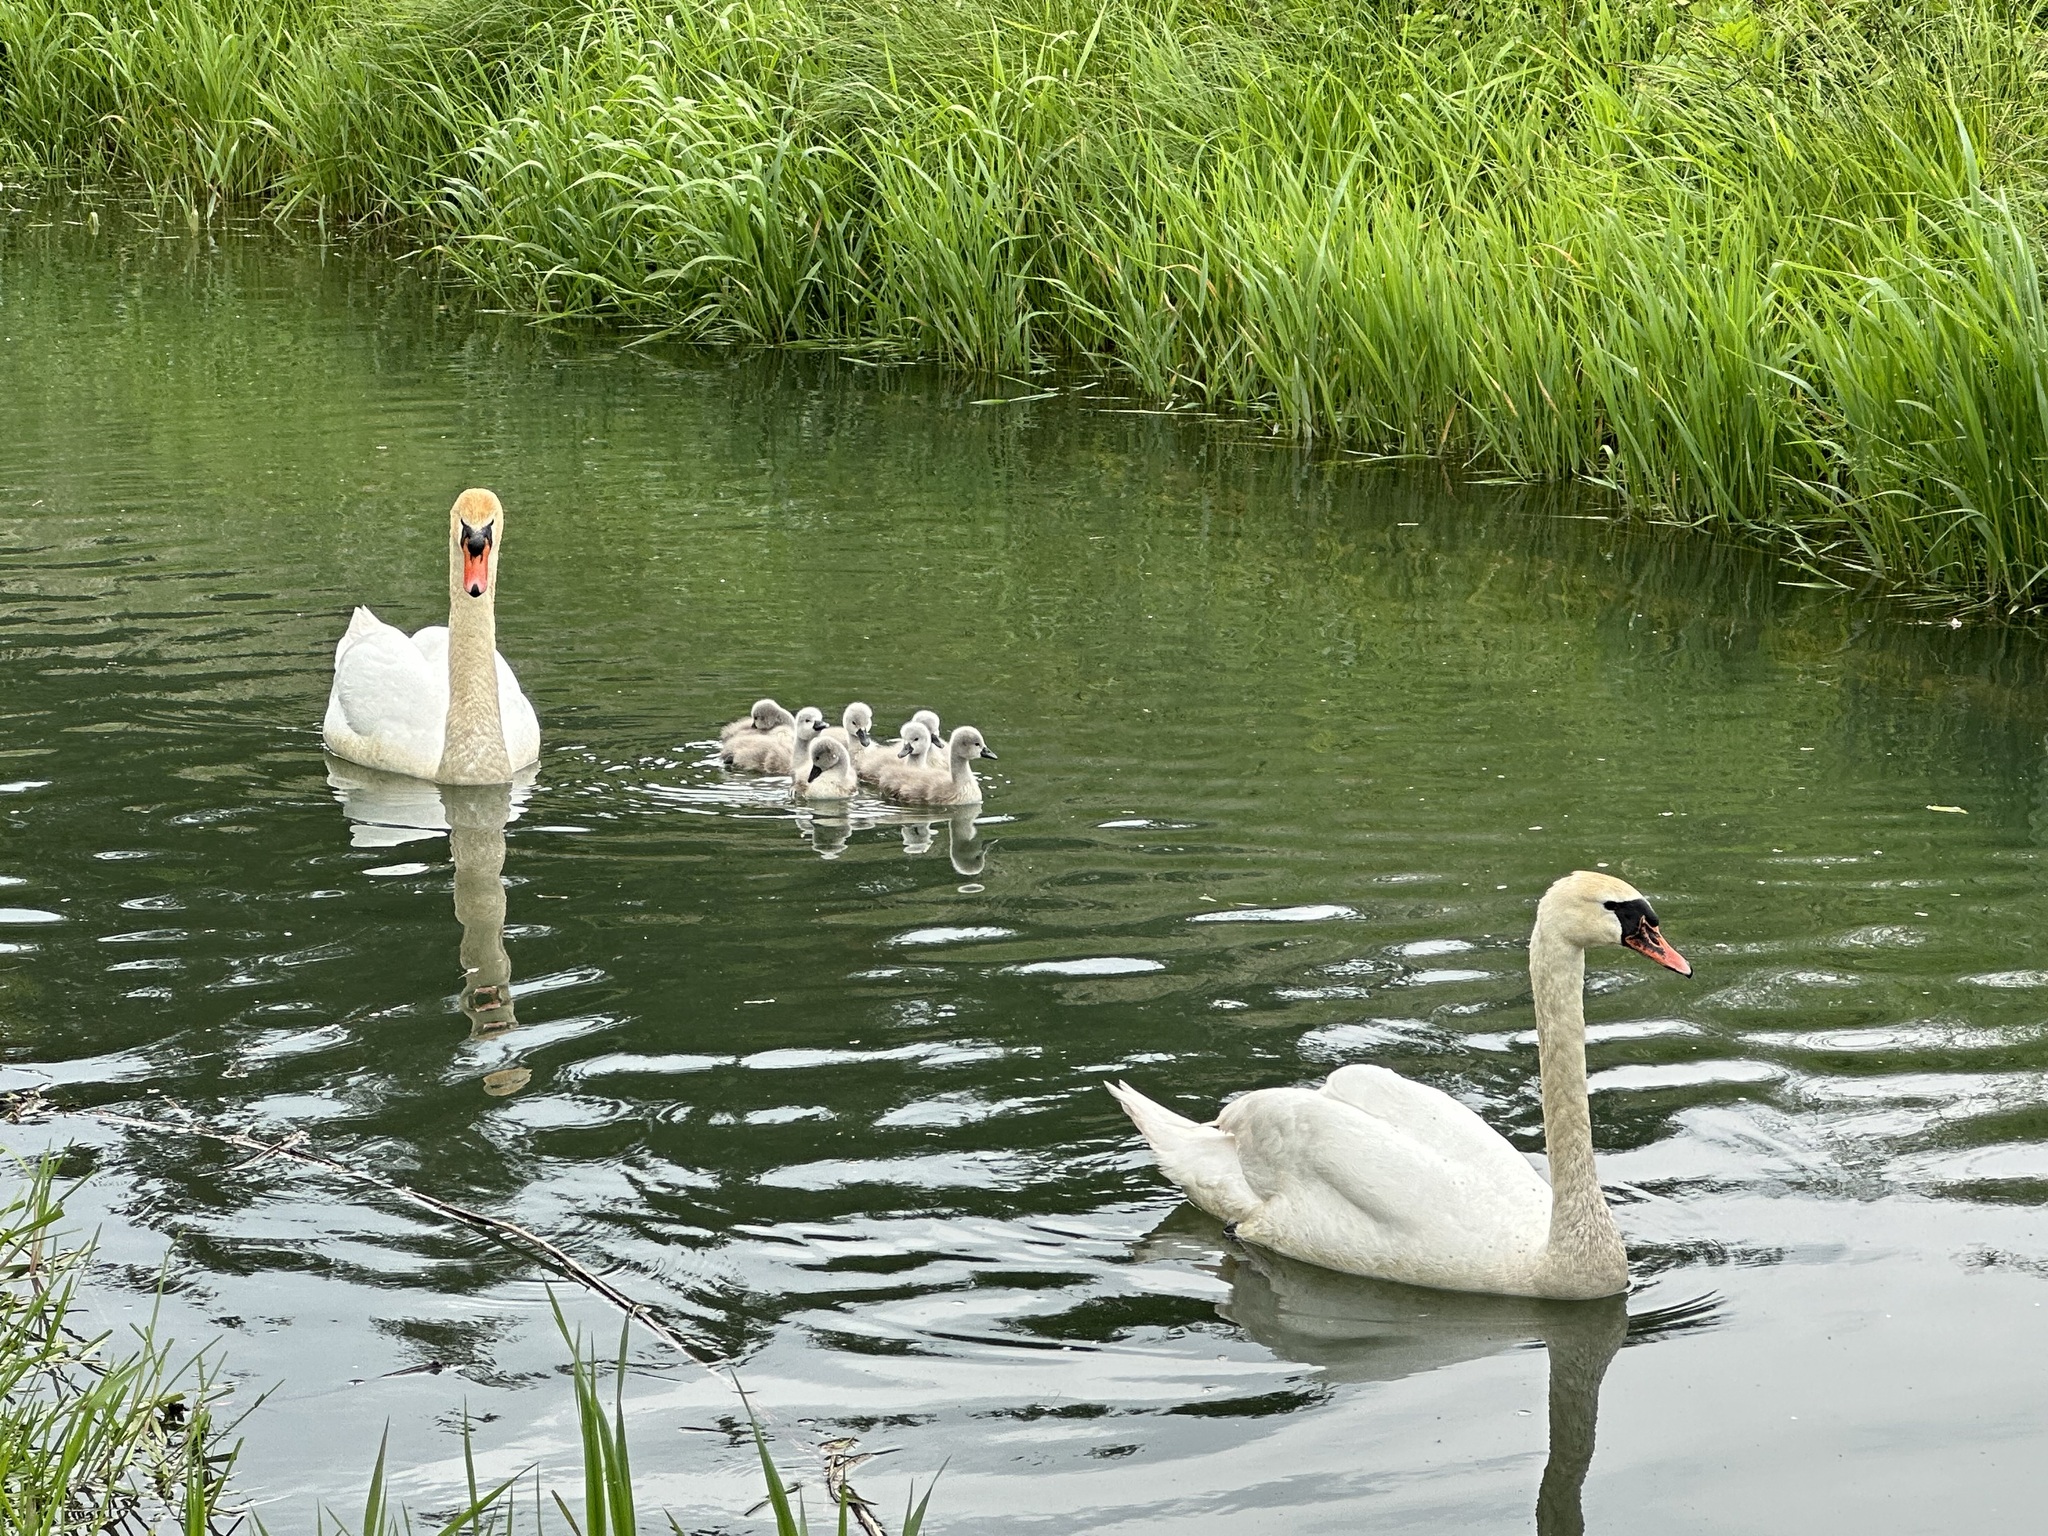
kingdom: Animalia
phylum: Chordata
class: Aves
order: Anseriformes
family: Anatidae
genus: Cygnus
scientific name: Cygnus olor
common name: Mute swan
